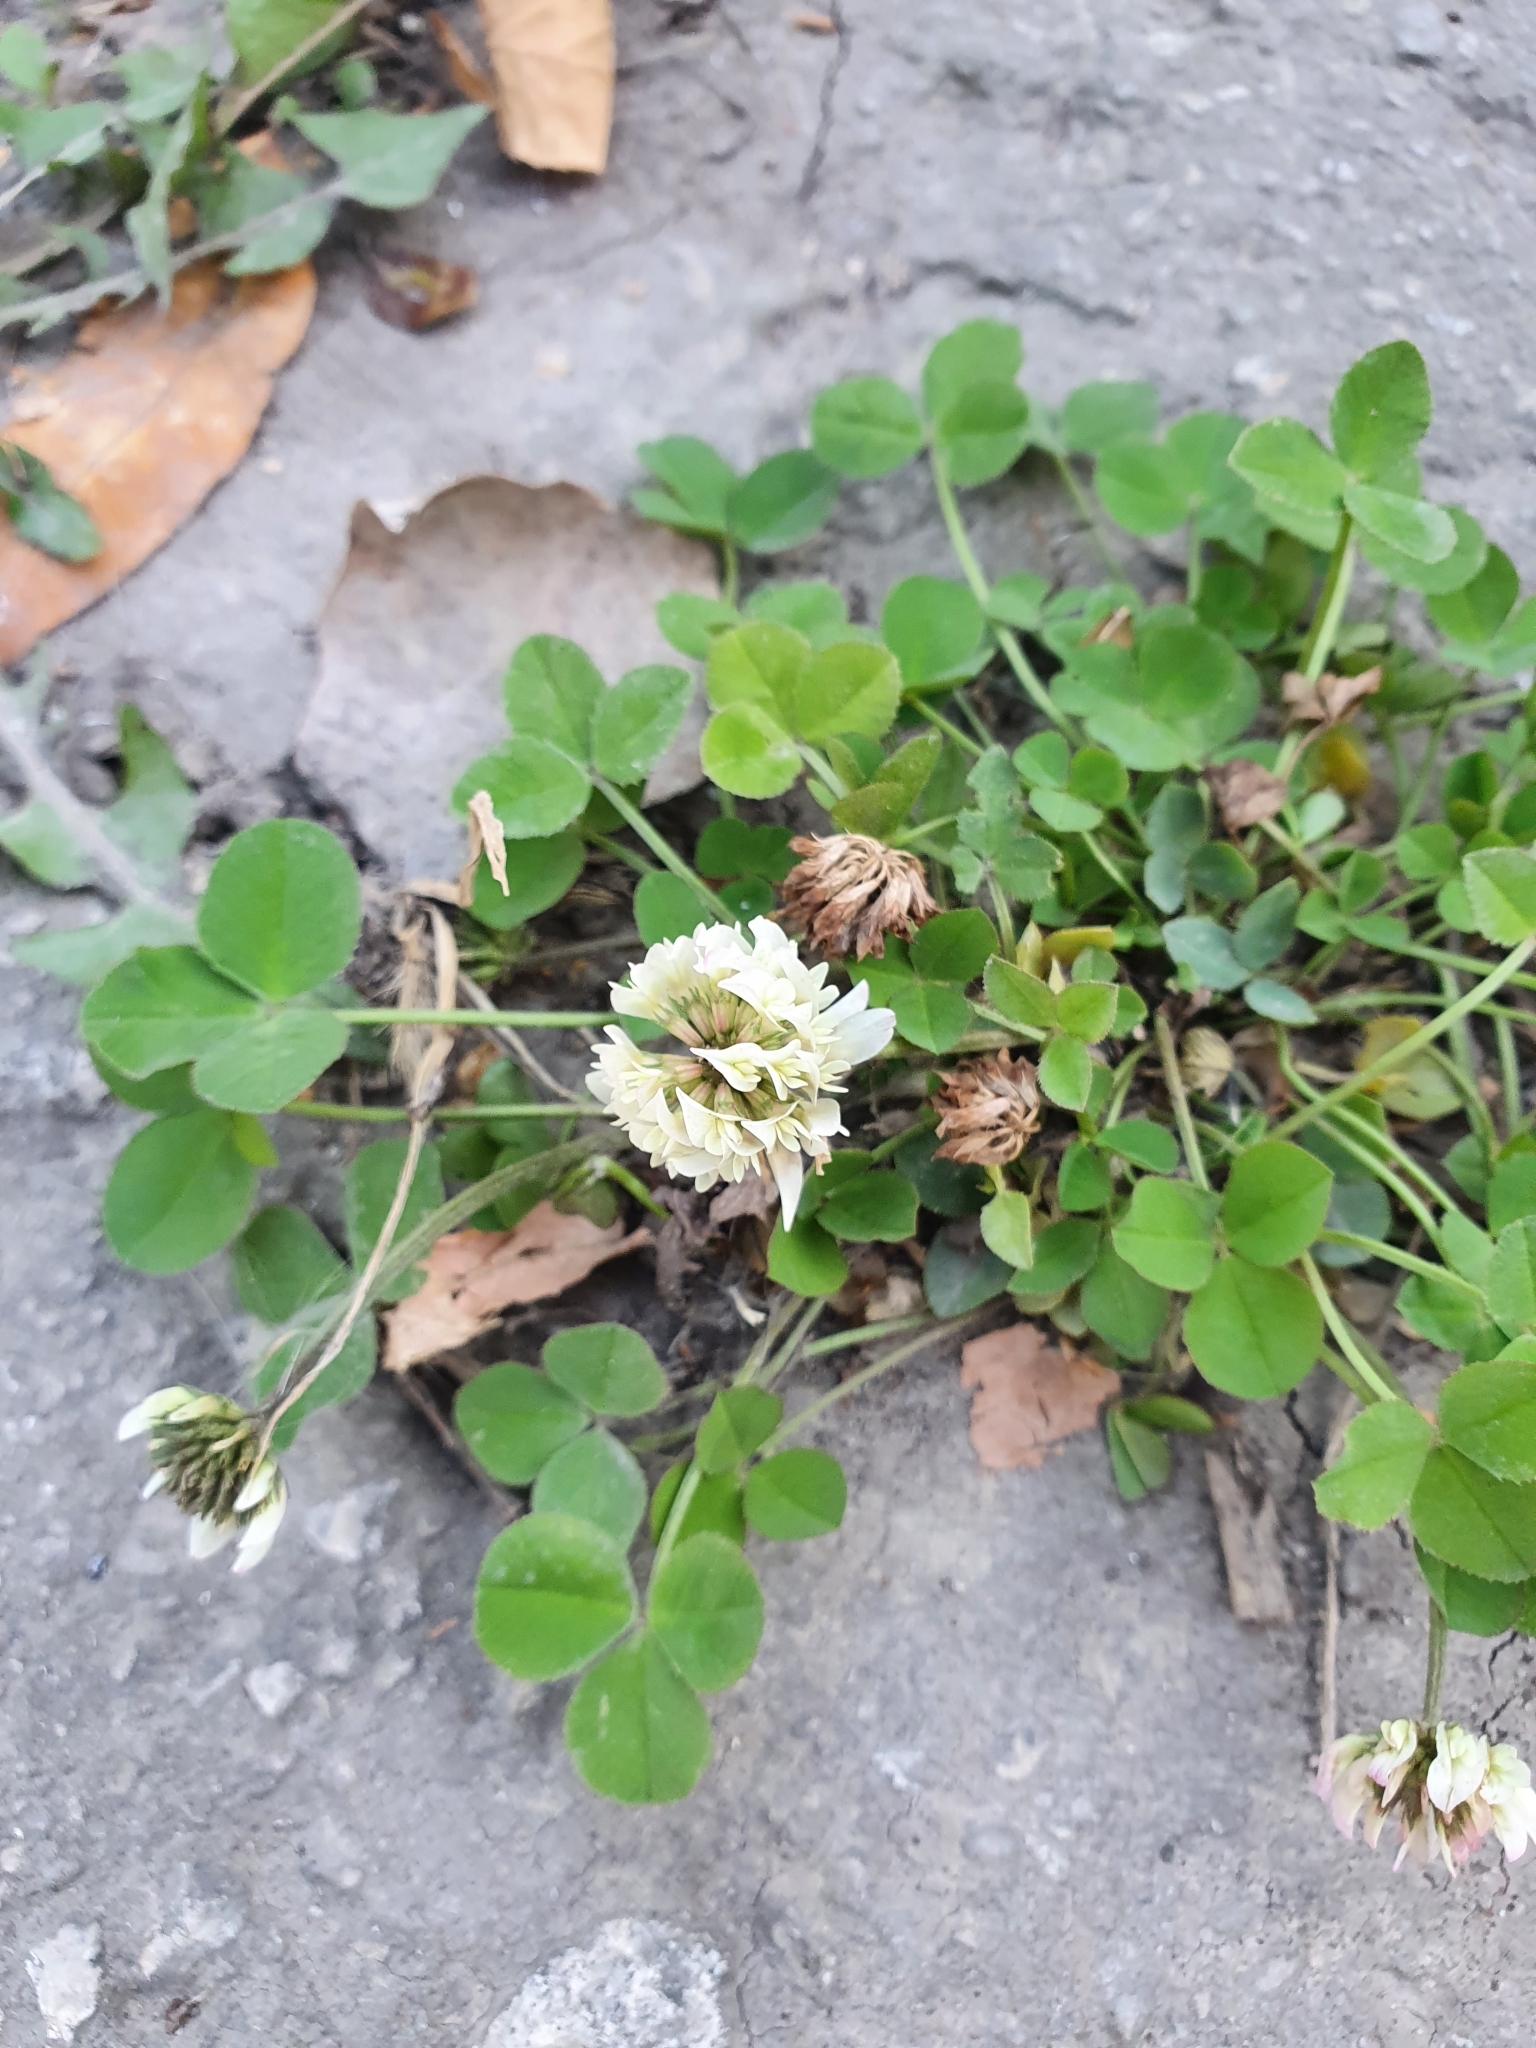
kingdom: Plantae
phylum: Tracheophyta
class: Magnoliopsida
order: Fabales
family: Fabaceae
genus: Trifolium
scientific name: Trifolium repens
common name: White clover
